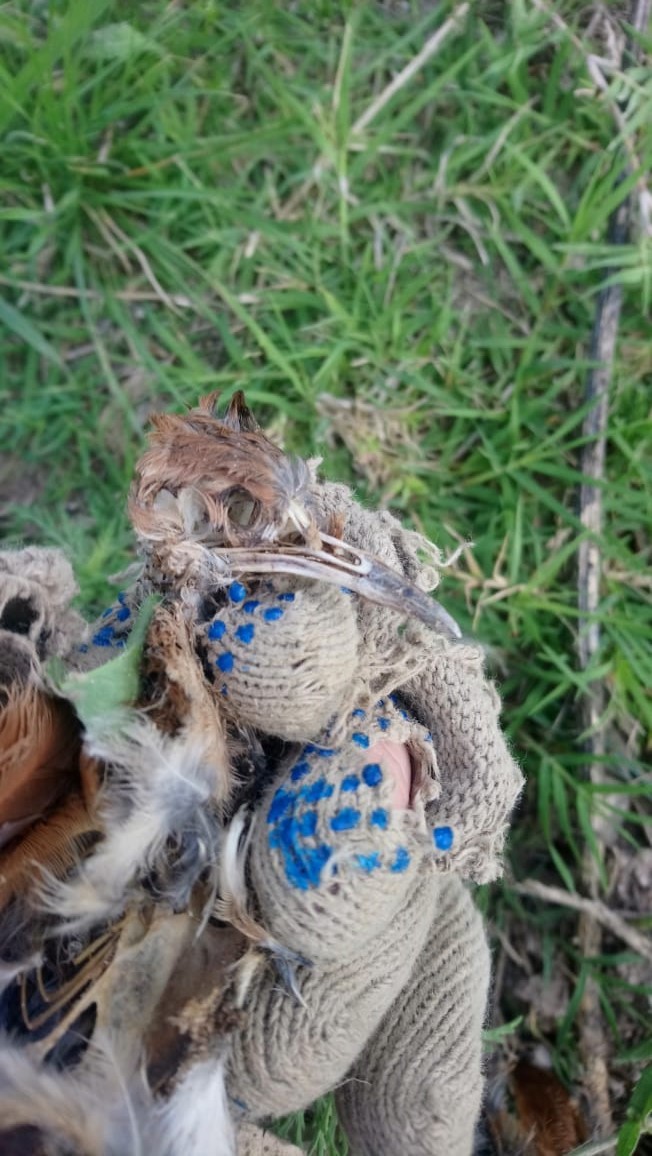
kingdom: Animalia
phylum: Chordata
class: Aves
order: Passeriformes
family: Furnariidae
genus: Furnarius
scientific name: Furnarius rufus
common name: Rufous hornero
